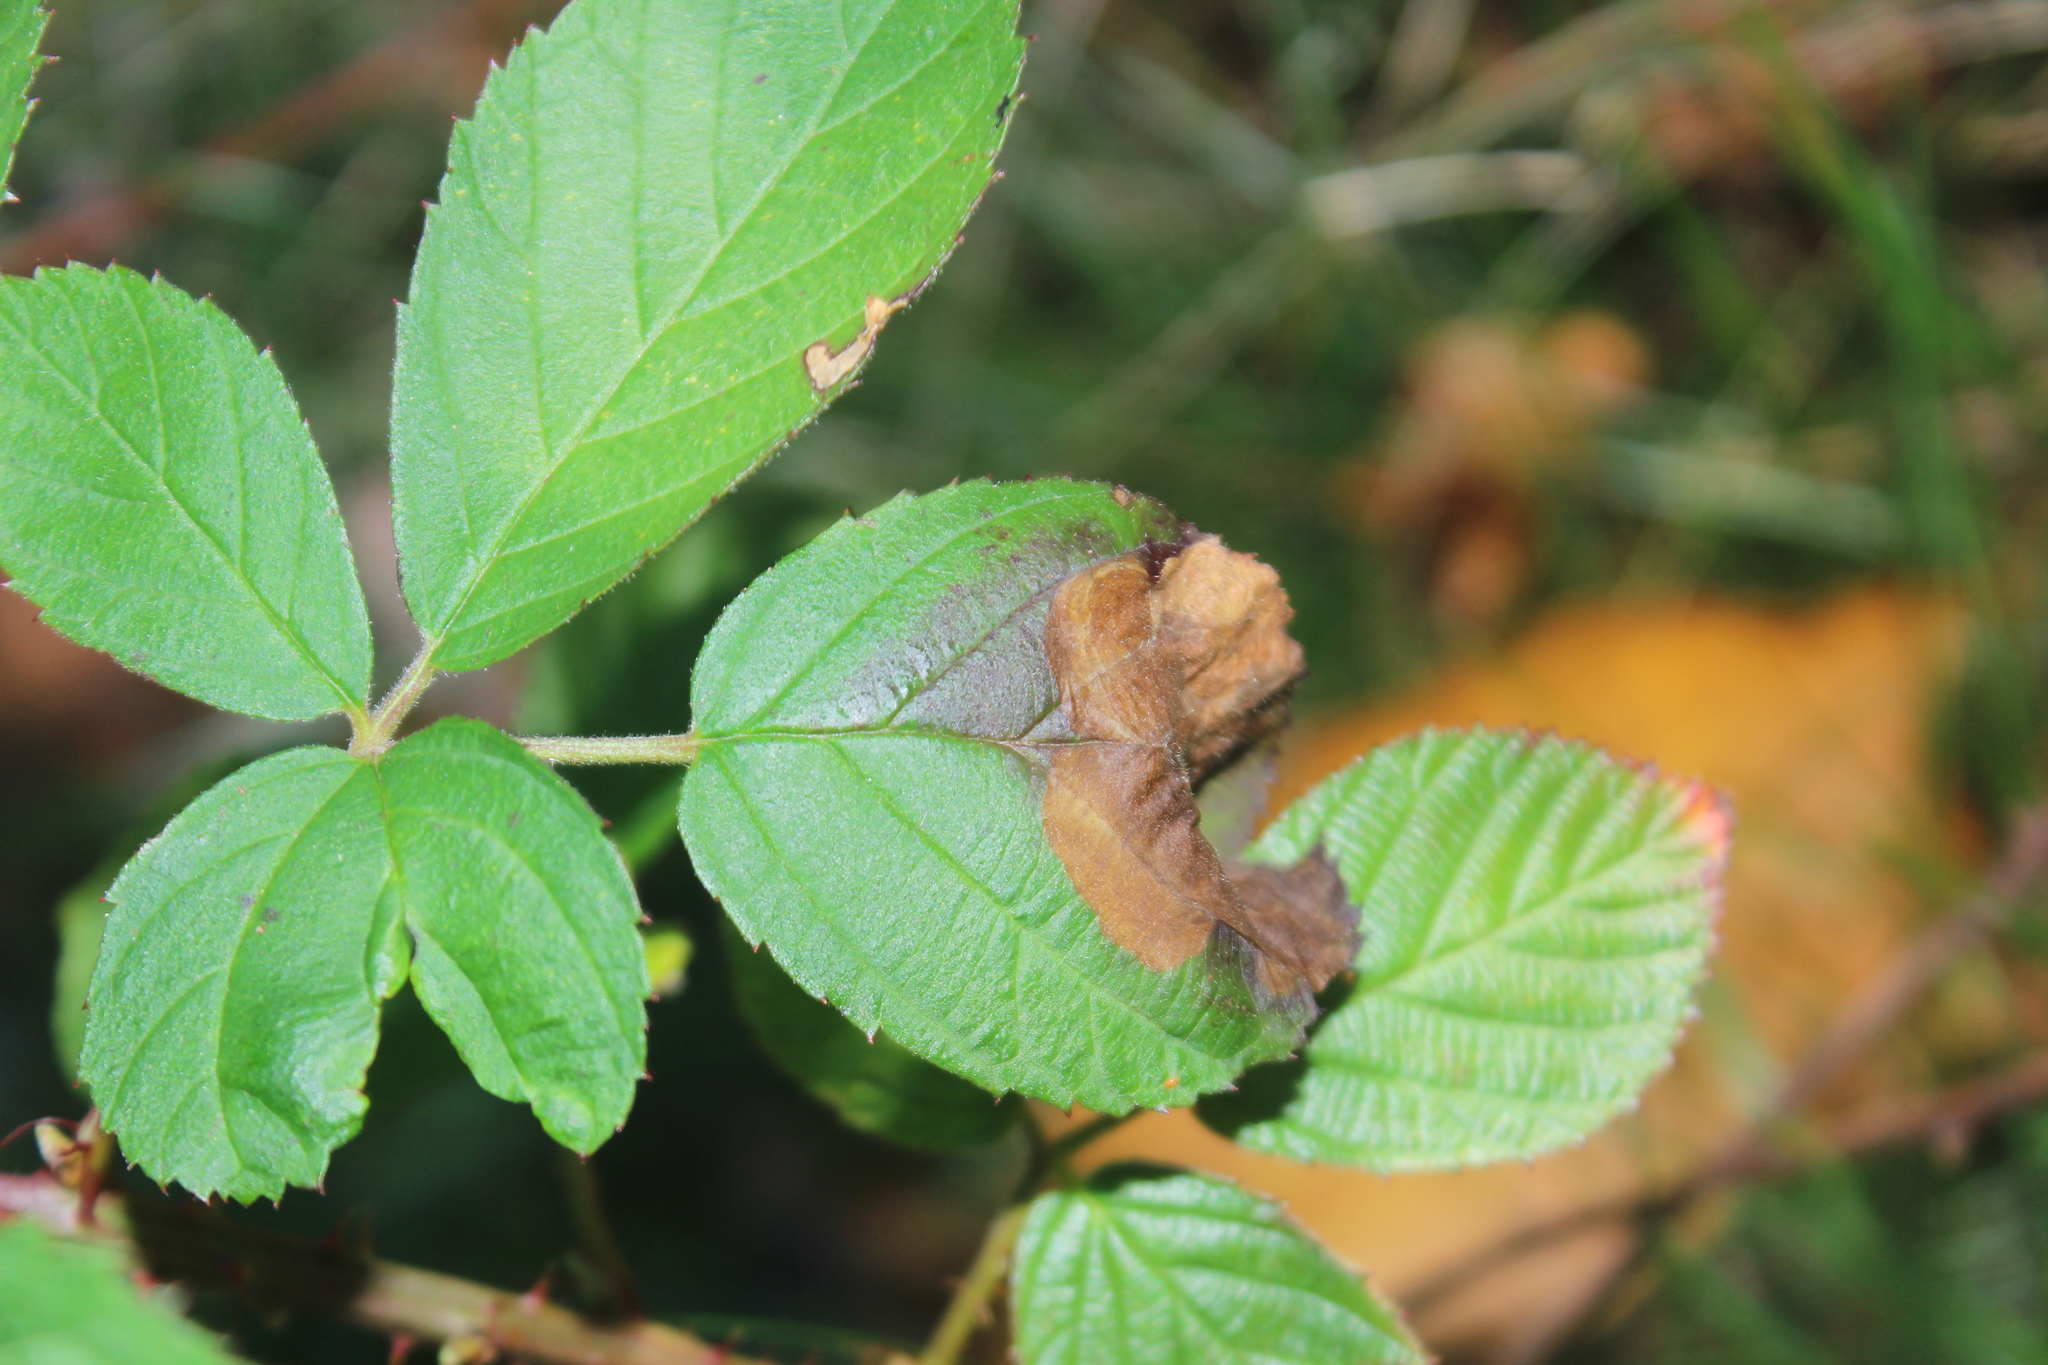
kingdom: Animalia
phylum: Arthropoda
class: Insecta
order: Hymenoptera
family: Tenthredinidae
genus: Metallus
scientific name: Metallus rohweri
